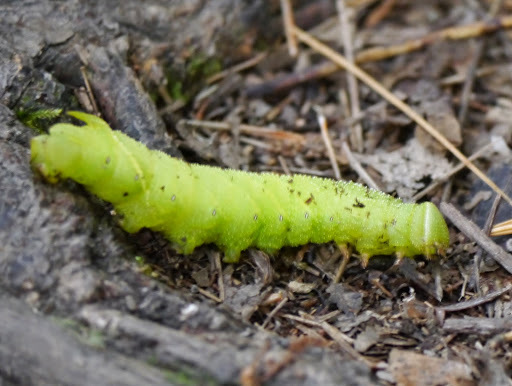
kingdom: Animalia
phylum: Arthropoda
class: Insecta
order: Lepidoptera
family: Sphingidae
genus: Paonias
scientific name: Paonias excaecata
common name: Blind-eyed sphinx
